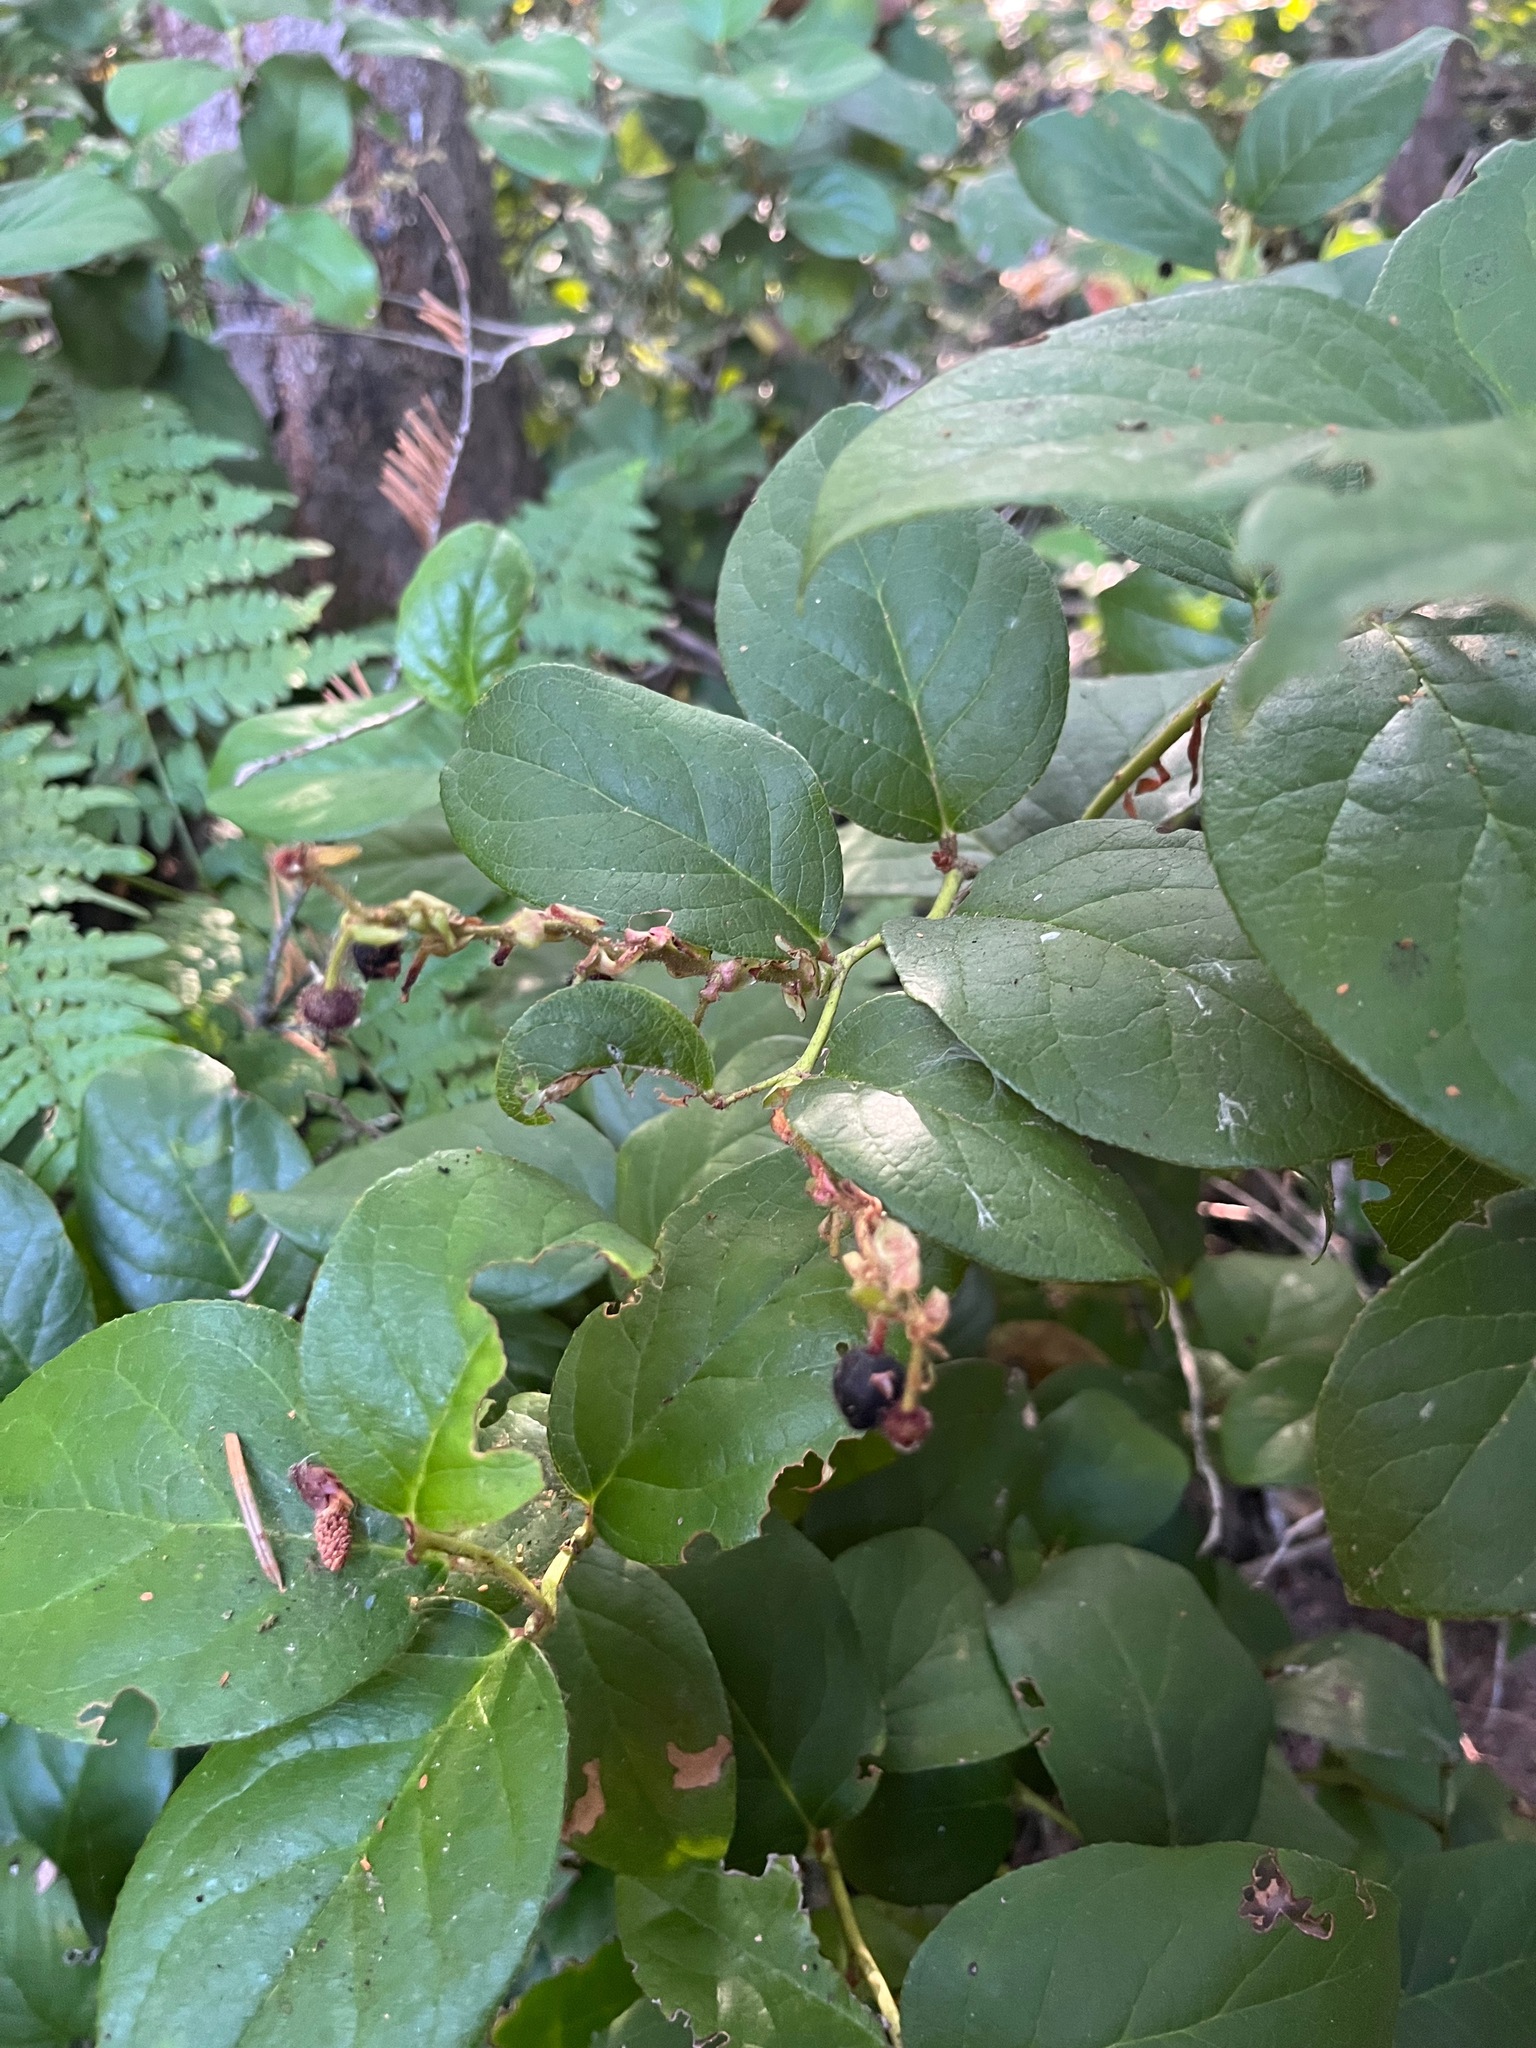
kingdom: Plantae
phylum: Tracheophyta
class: Magnoliopsida
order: Ericales
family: Ericaceae
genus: Gaultheria
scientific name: Gaultheria shallon
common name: Shallon
